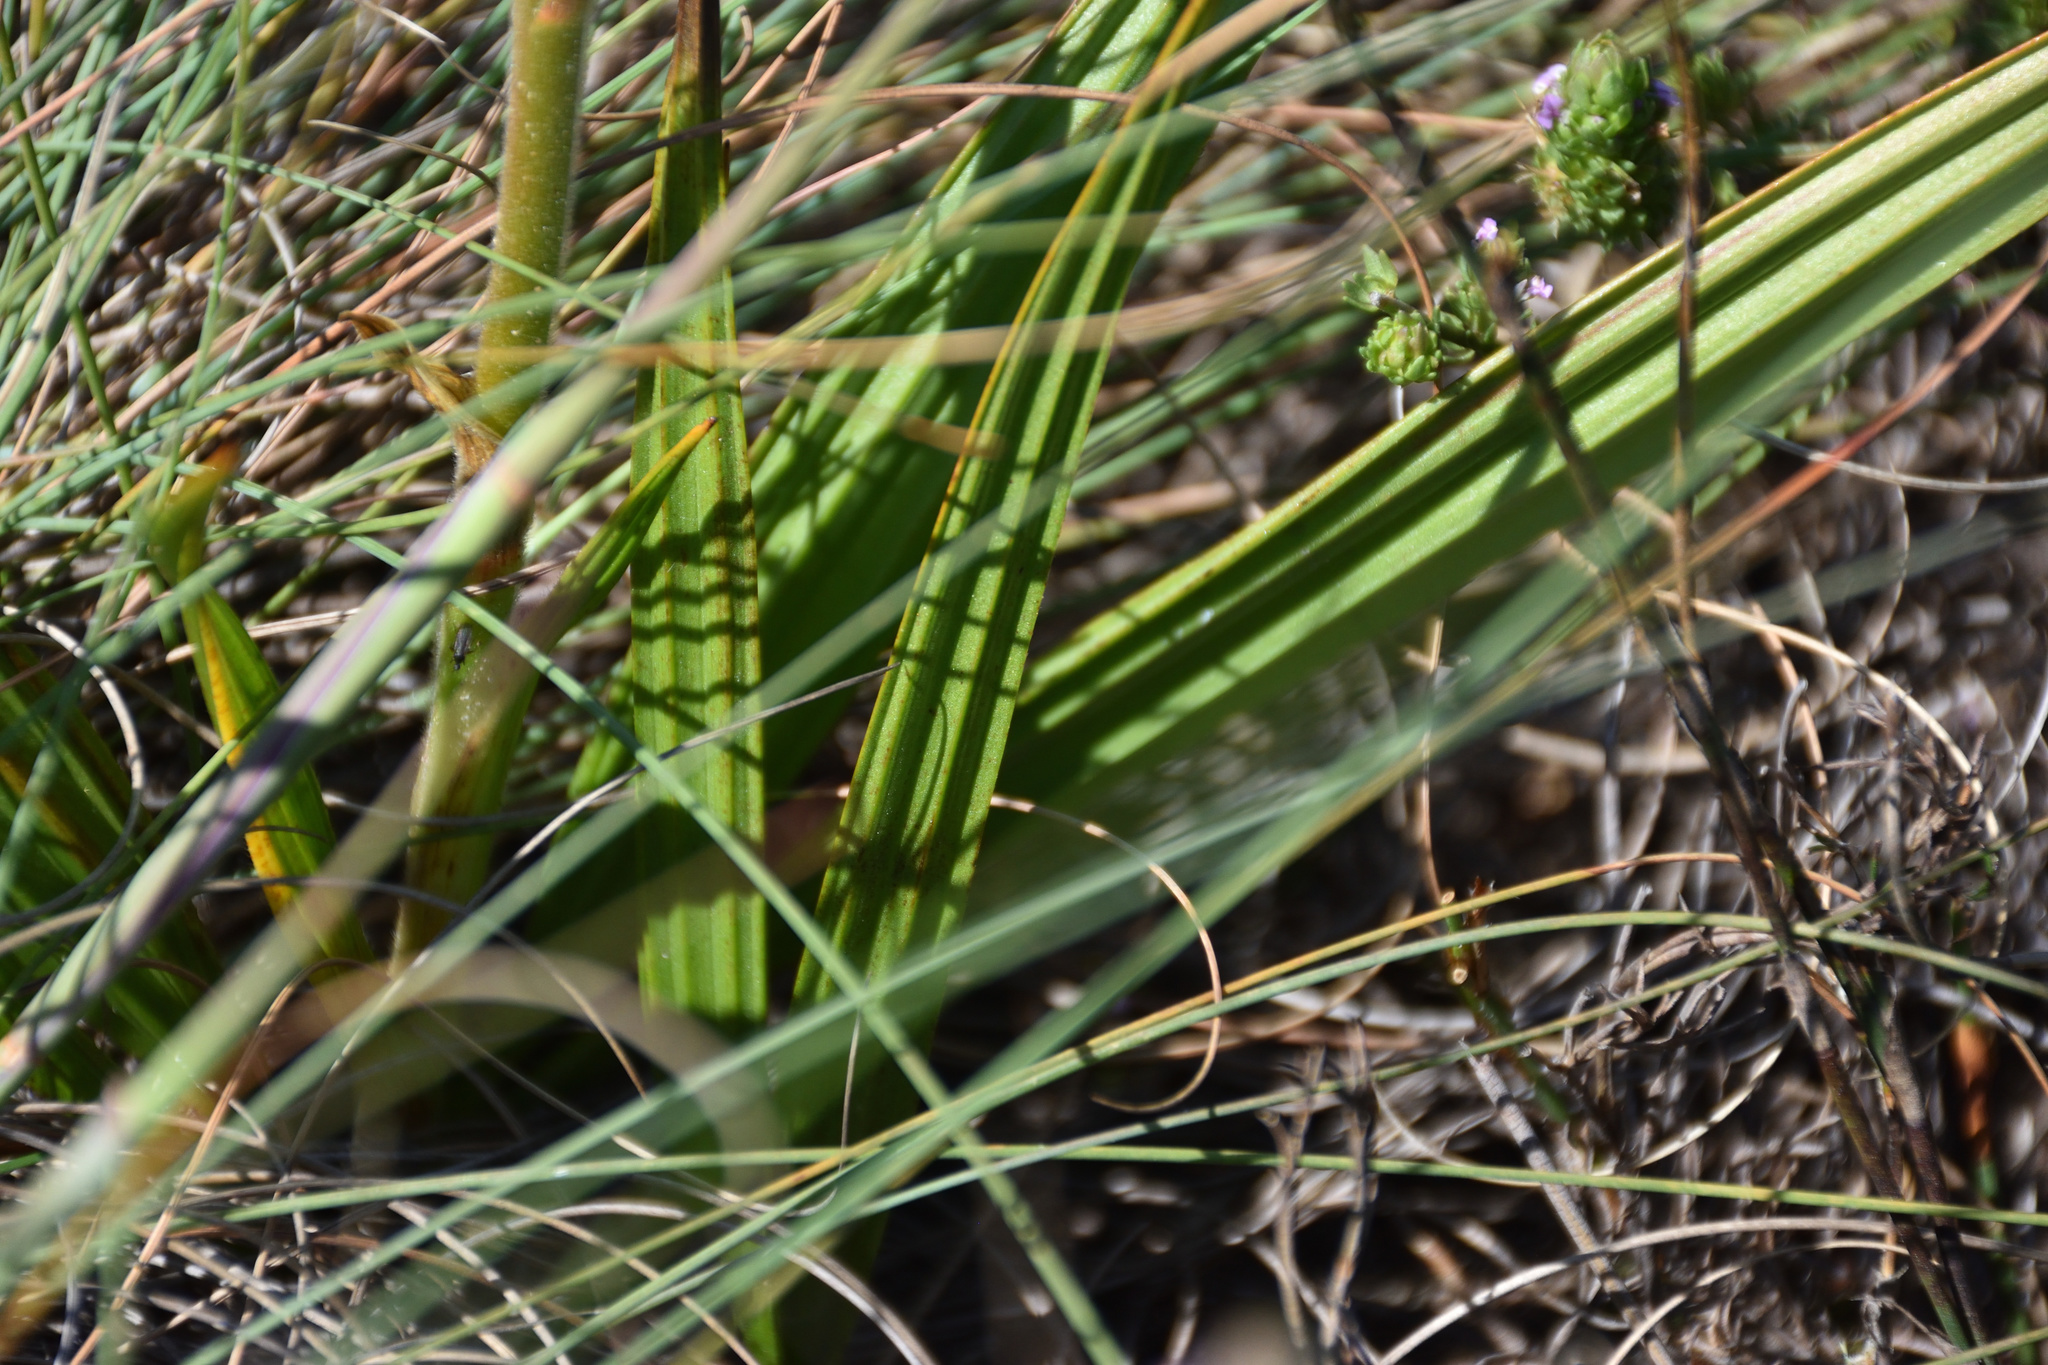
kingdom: Plantae
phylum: Tracheophyta
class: Liliopsida
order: Commelinales
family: Haemodoraceae
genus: Wachendorfia
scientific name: Wachendorfia paniculata
